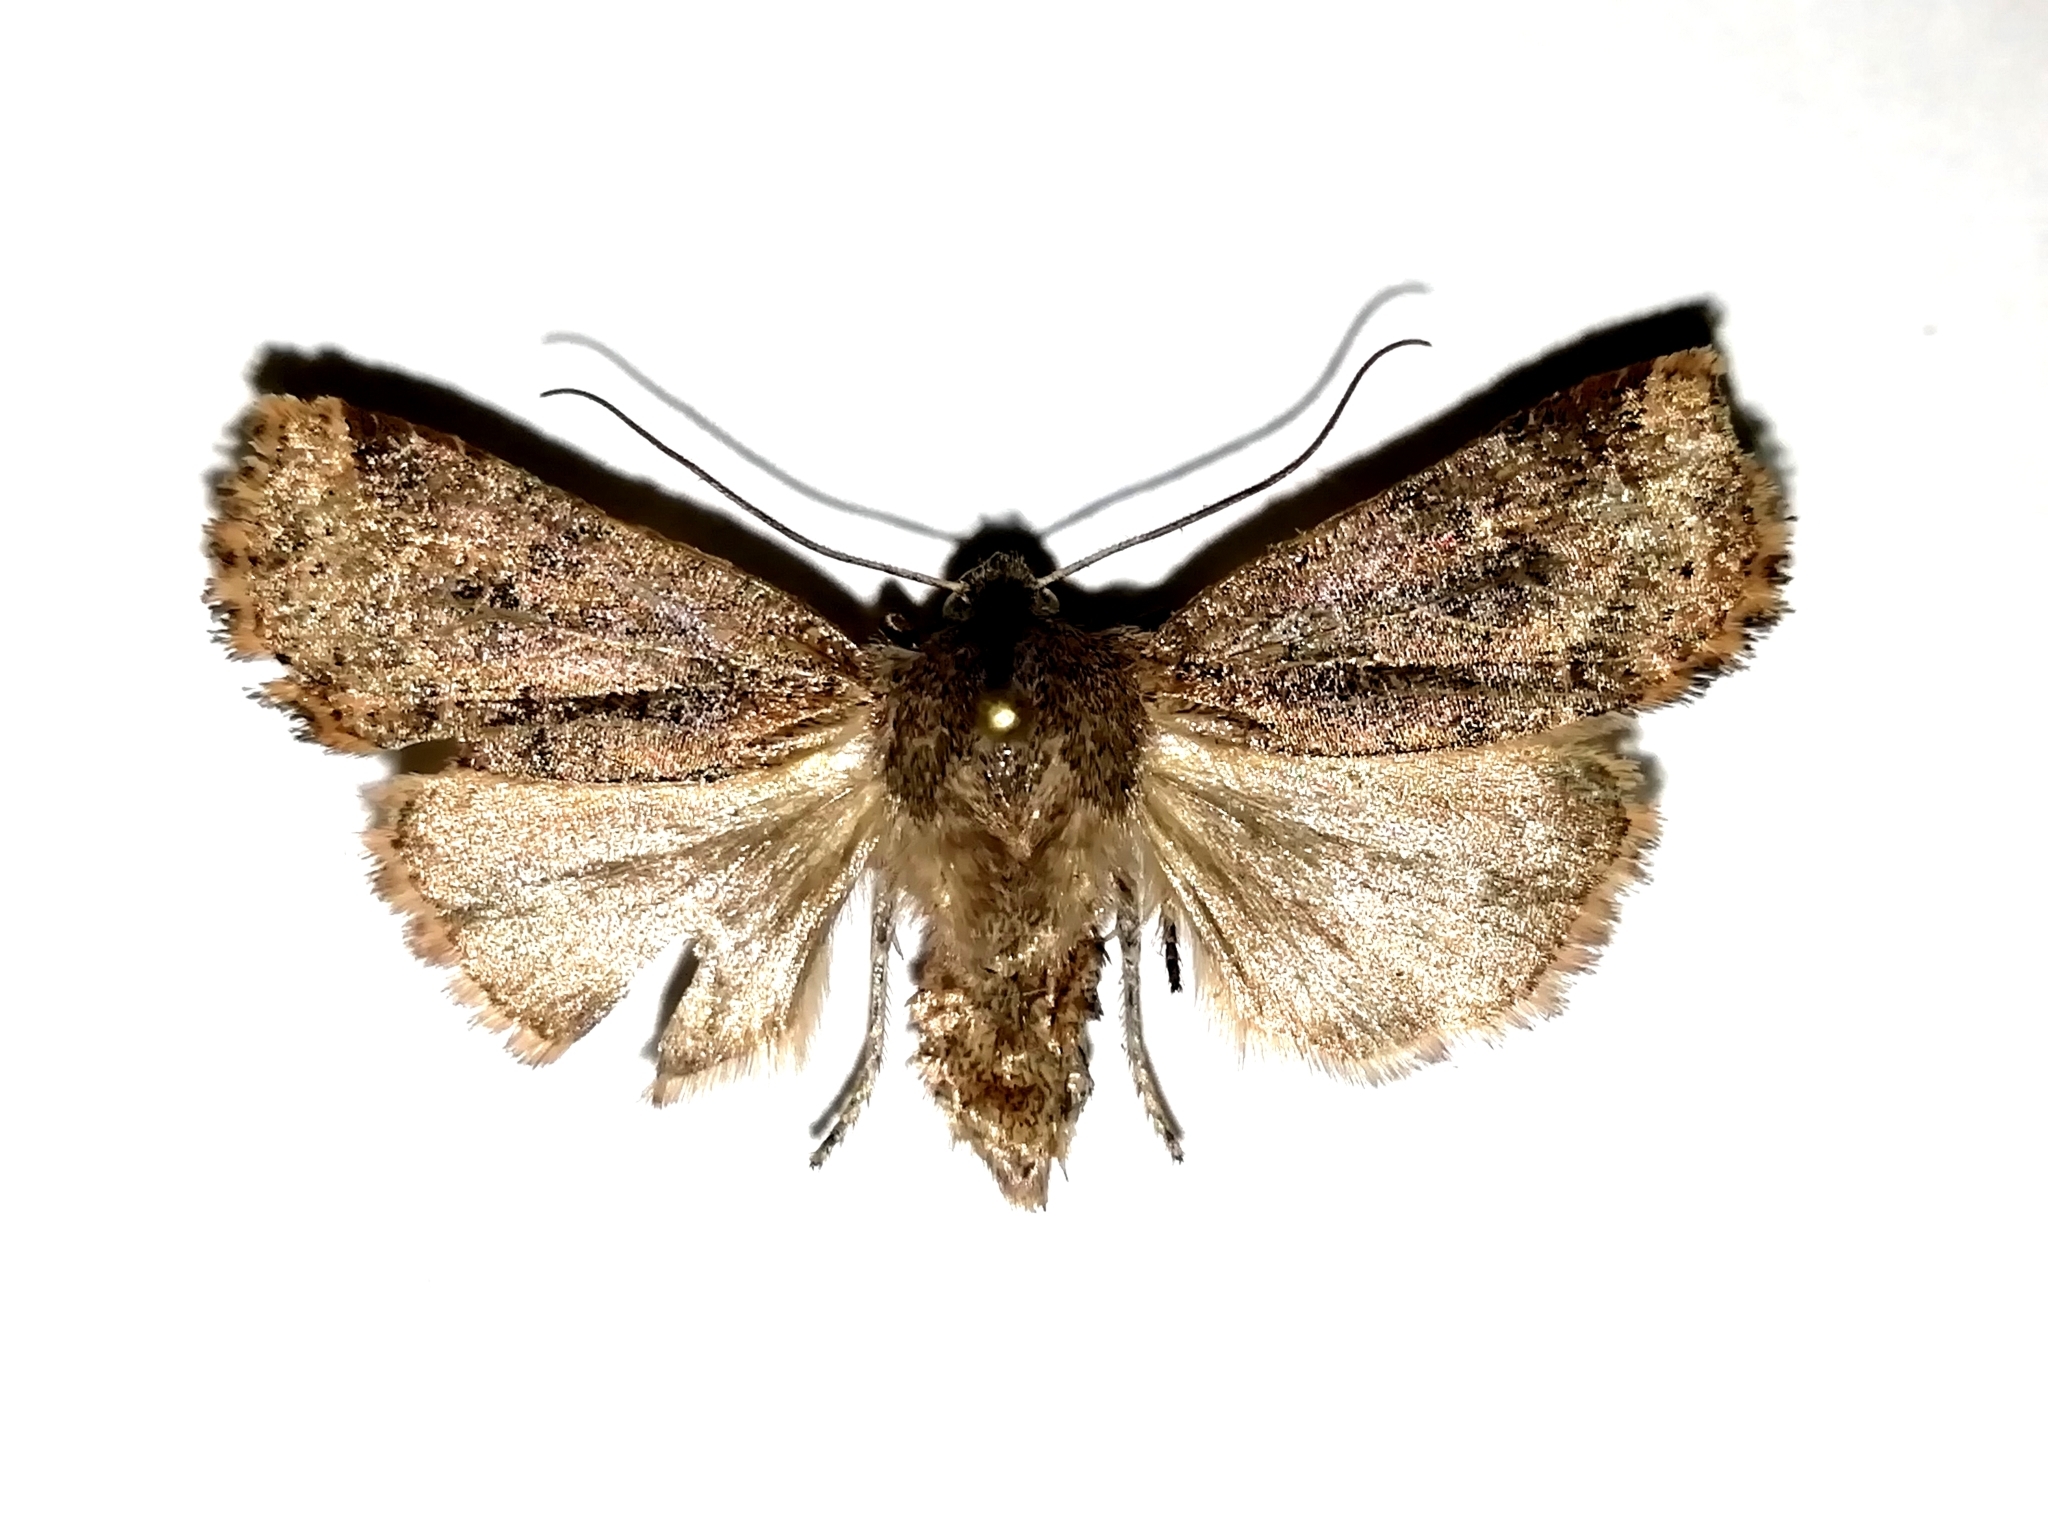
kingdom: Animalia
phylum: Arthropoda
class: Insecta
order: Lepidoptera
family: Noctuidae
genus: Conistra
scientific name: Conistra vaccinii
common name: Chestnut
